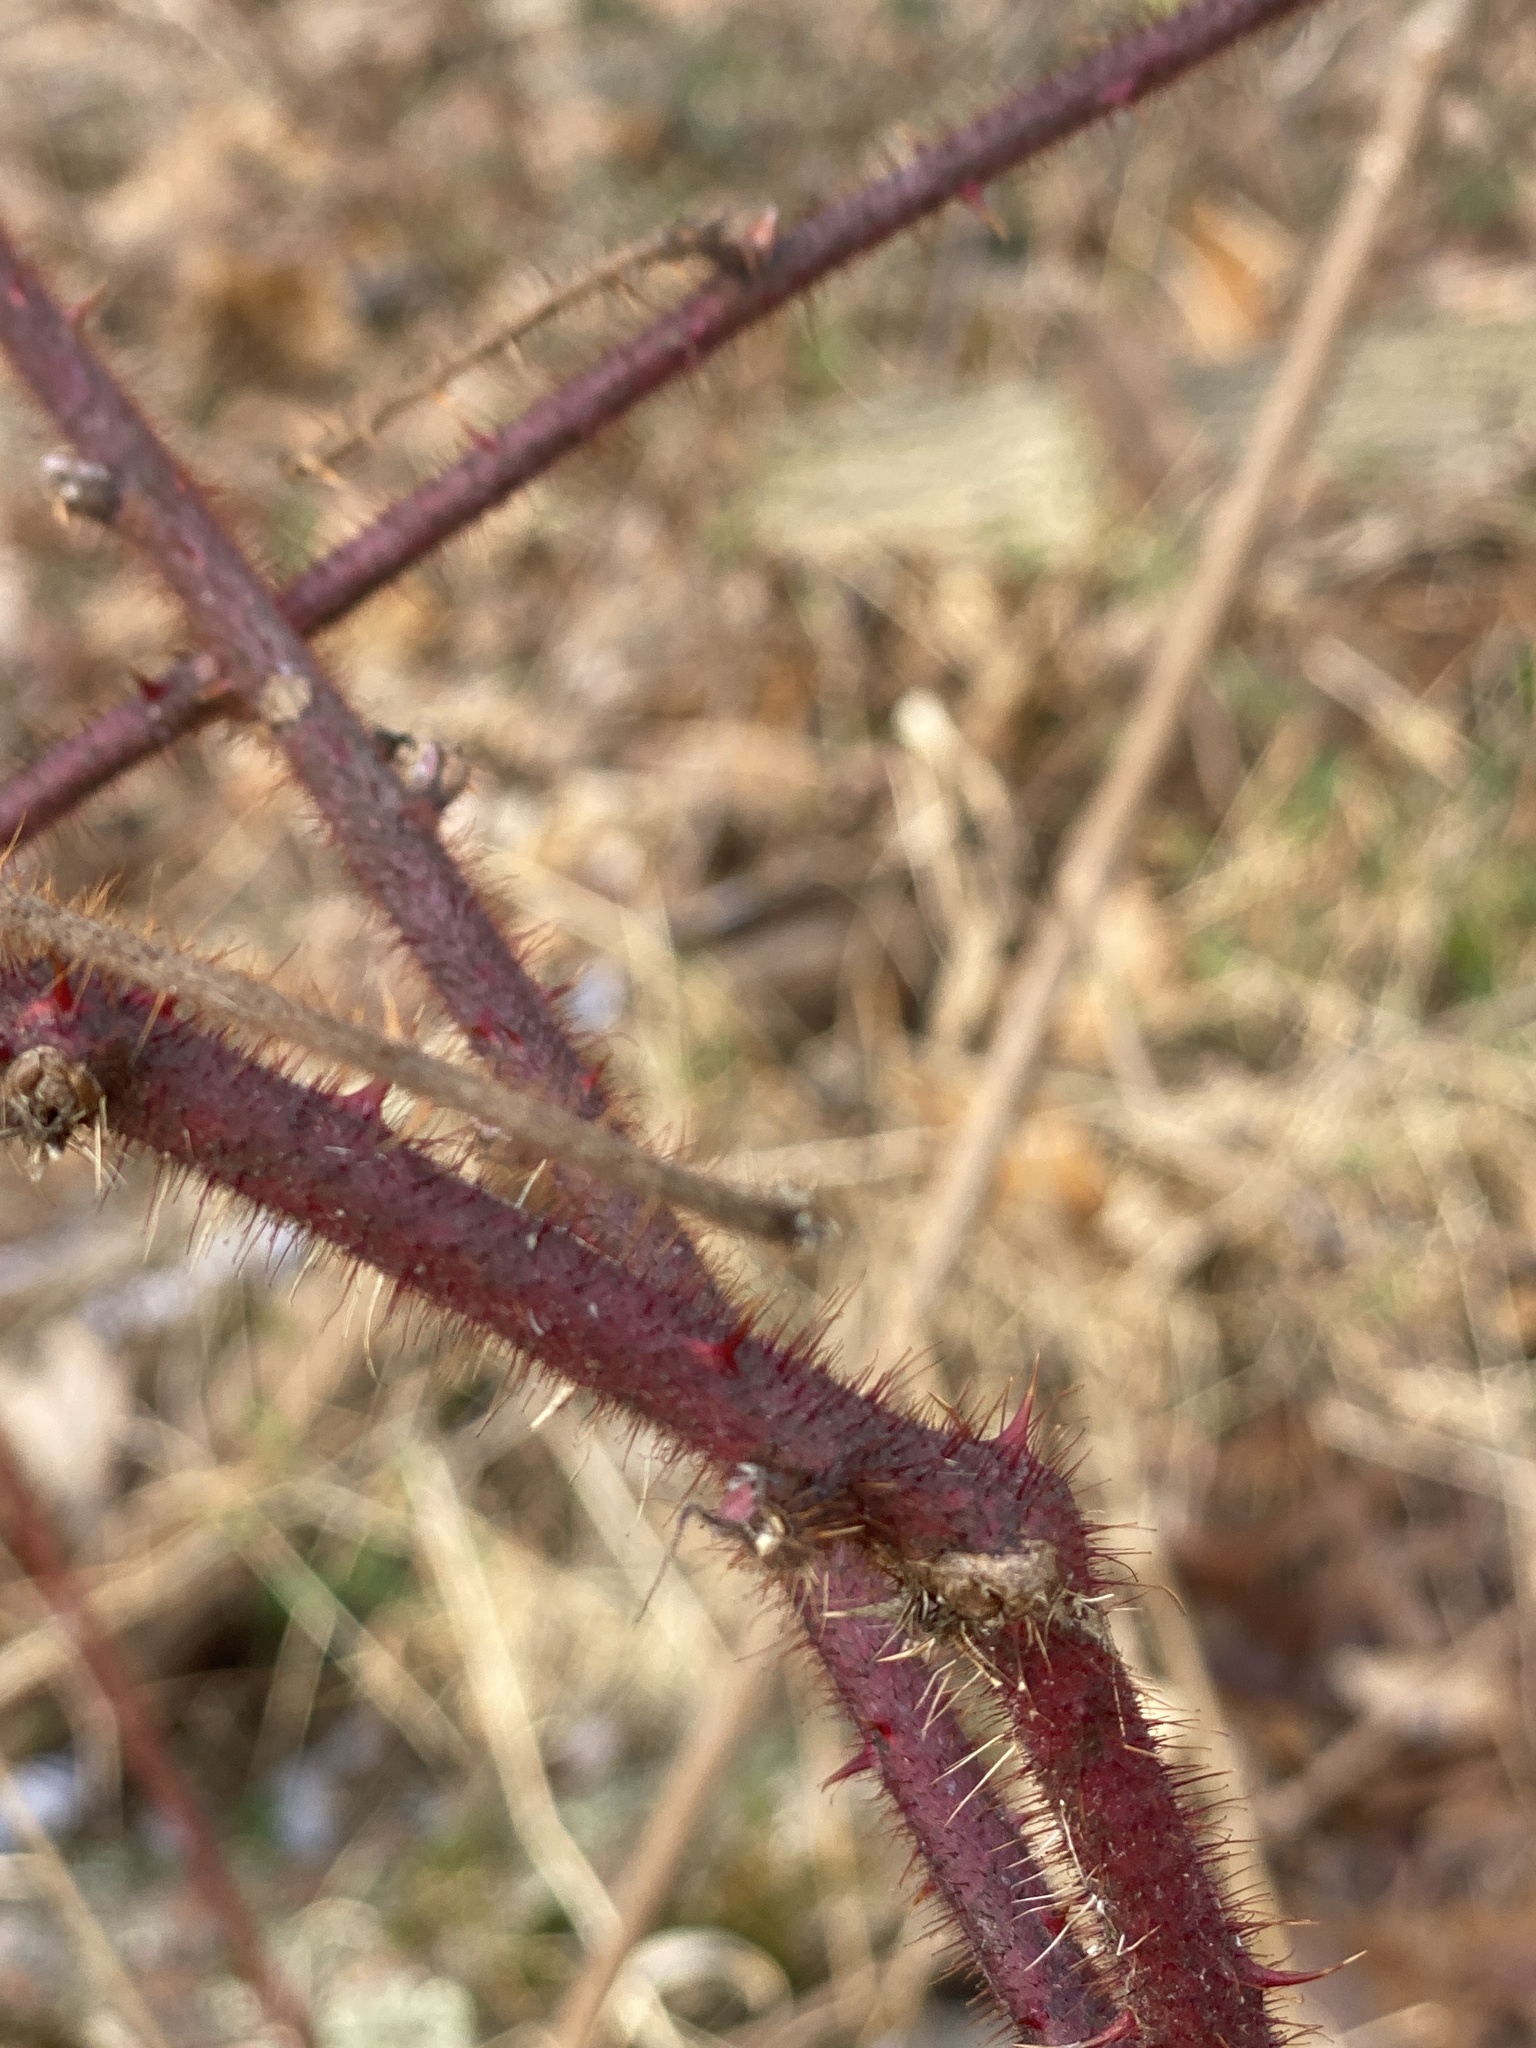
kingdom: Plantae
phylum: Tracheophyta
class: Magnoliopsida
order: Rosales
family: Rosaceae
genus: Rubus
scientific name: Rubus phoenicolasius
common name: Japanese wineberry
